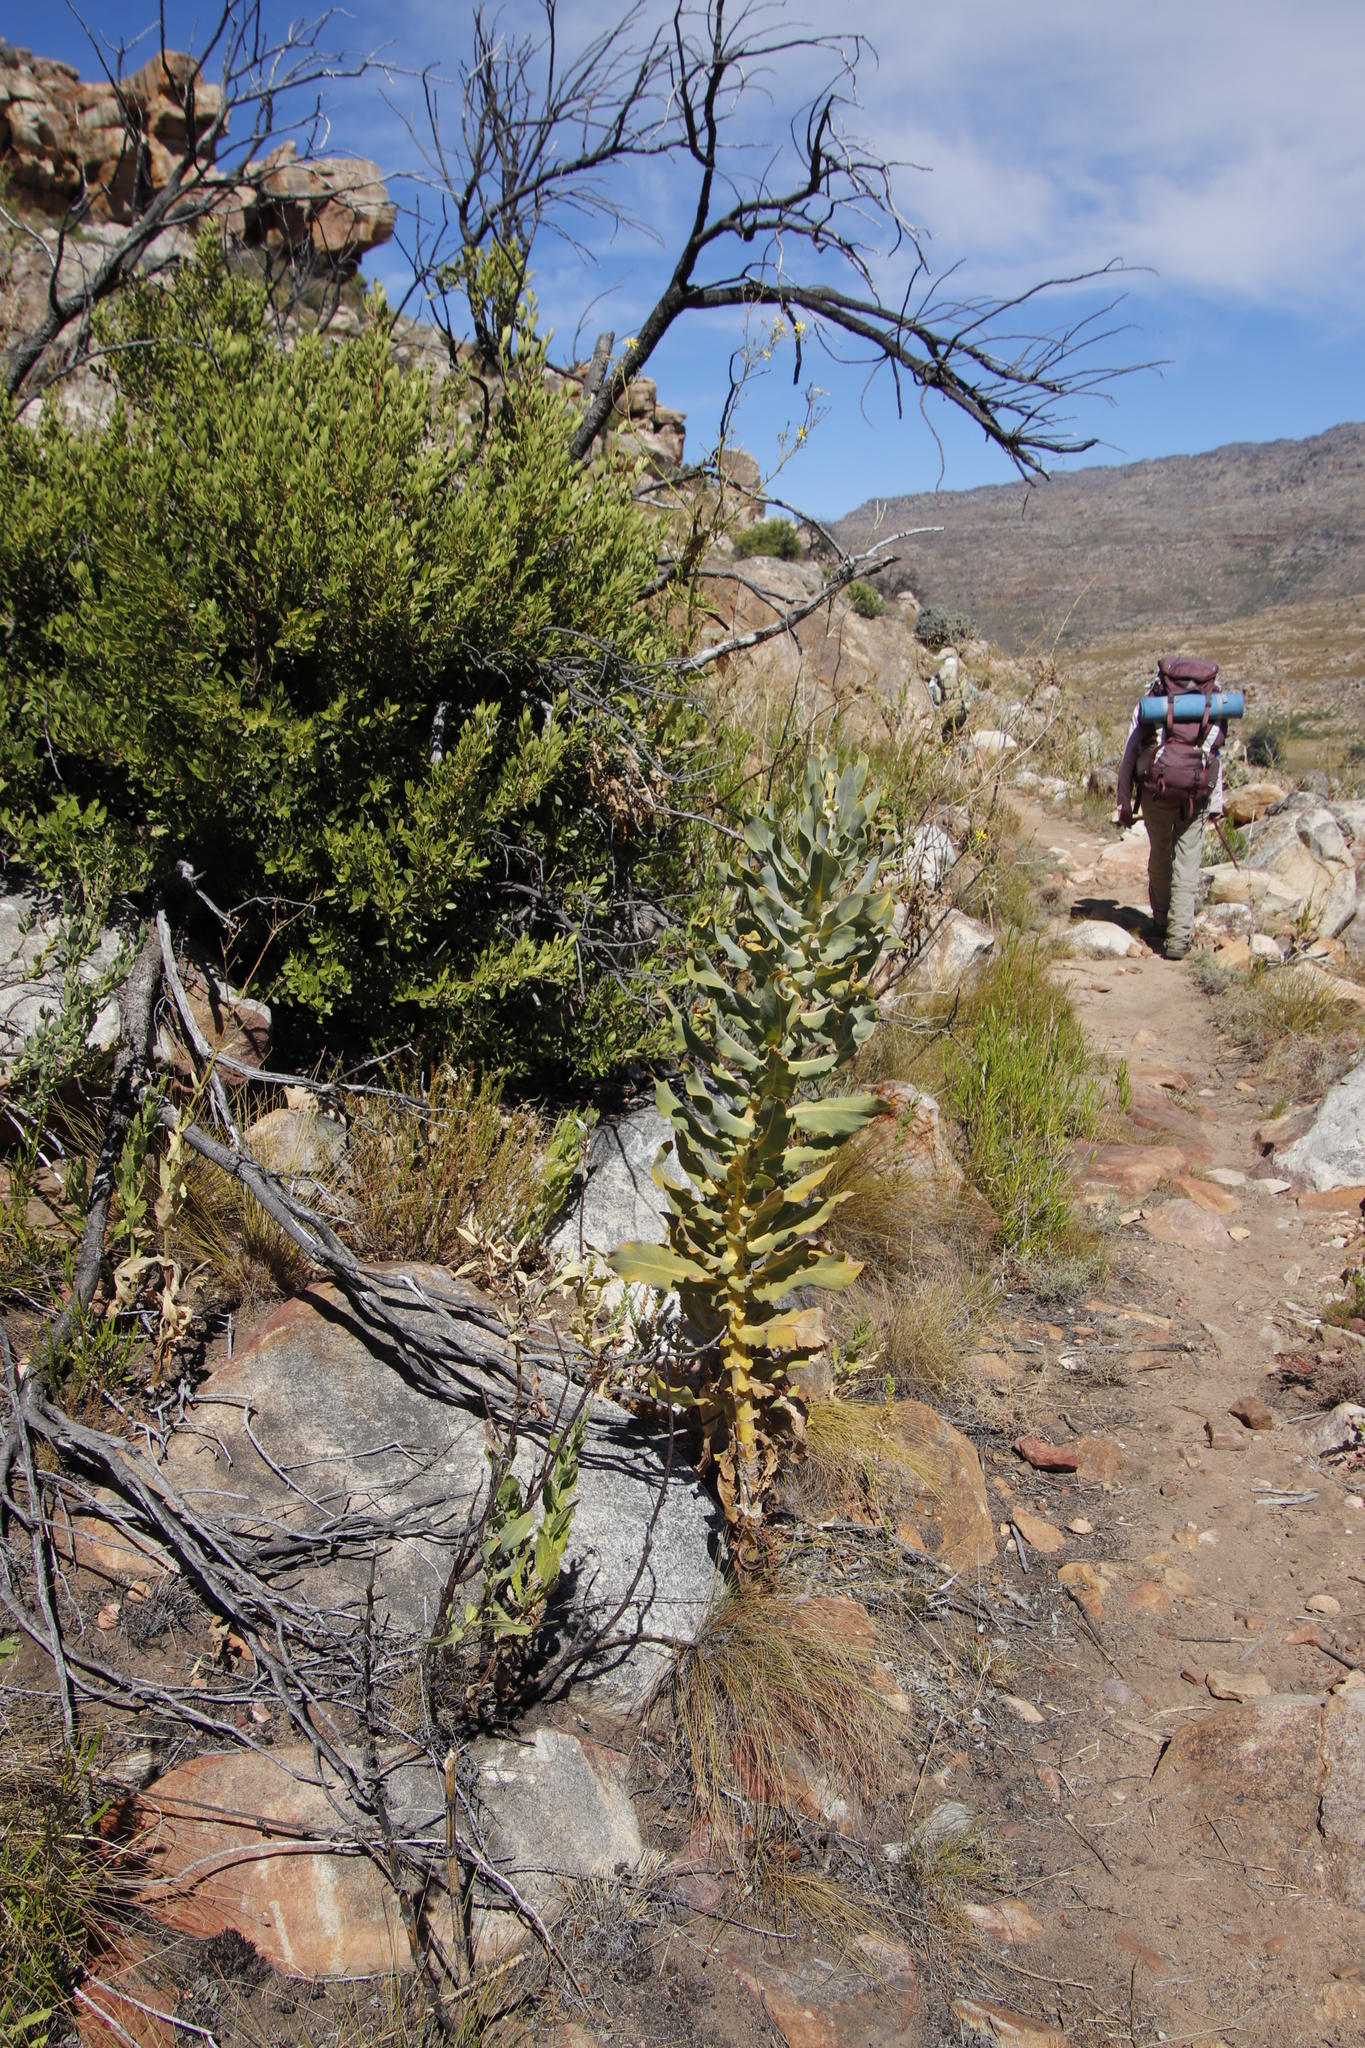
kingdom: Plantae
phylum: Tracheophyta
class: Magnoliopsida
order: Asterales
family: Asteraceae
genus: Othonna
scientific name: Othonna parviflora
